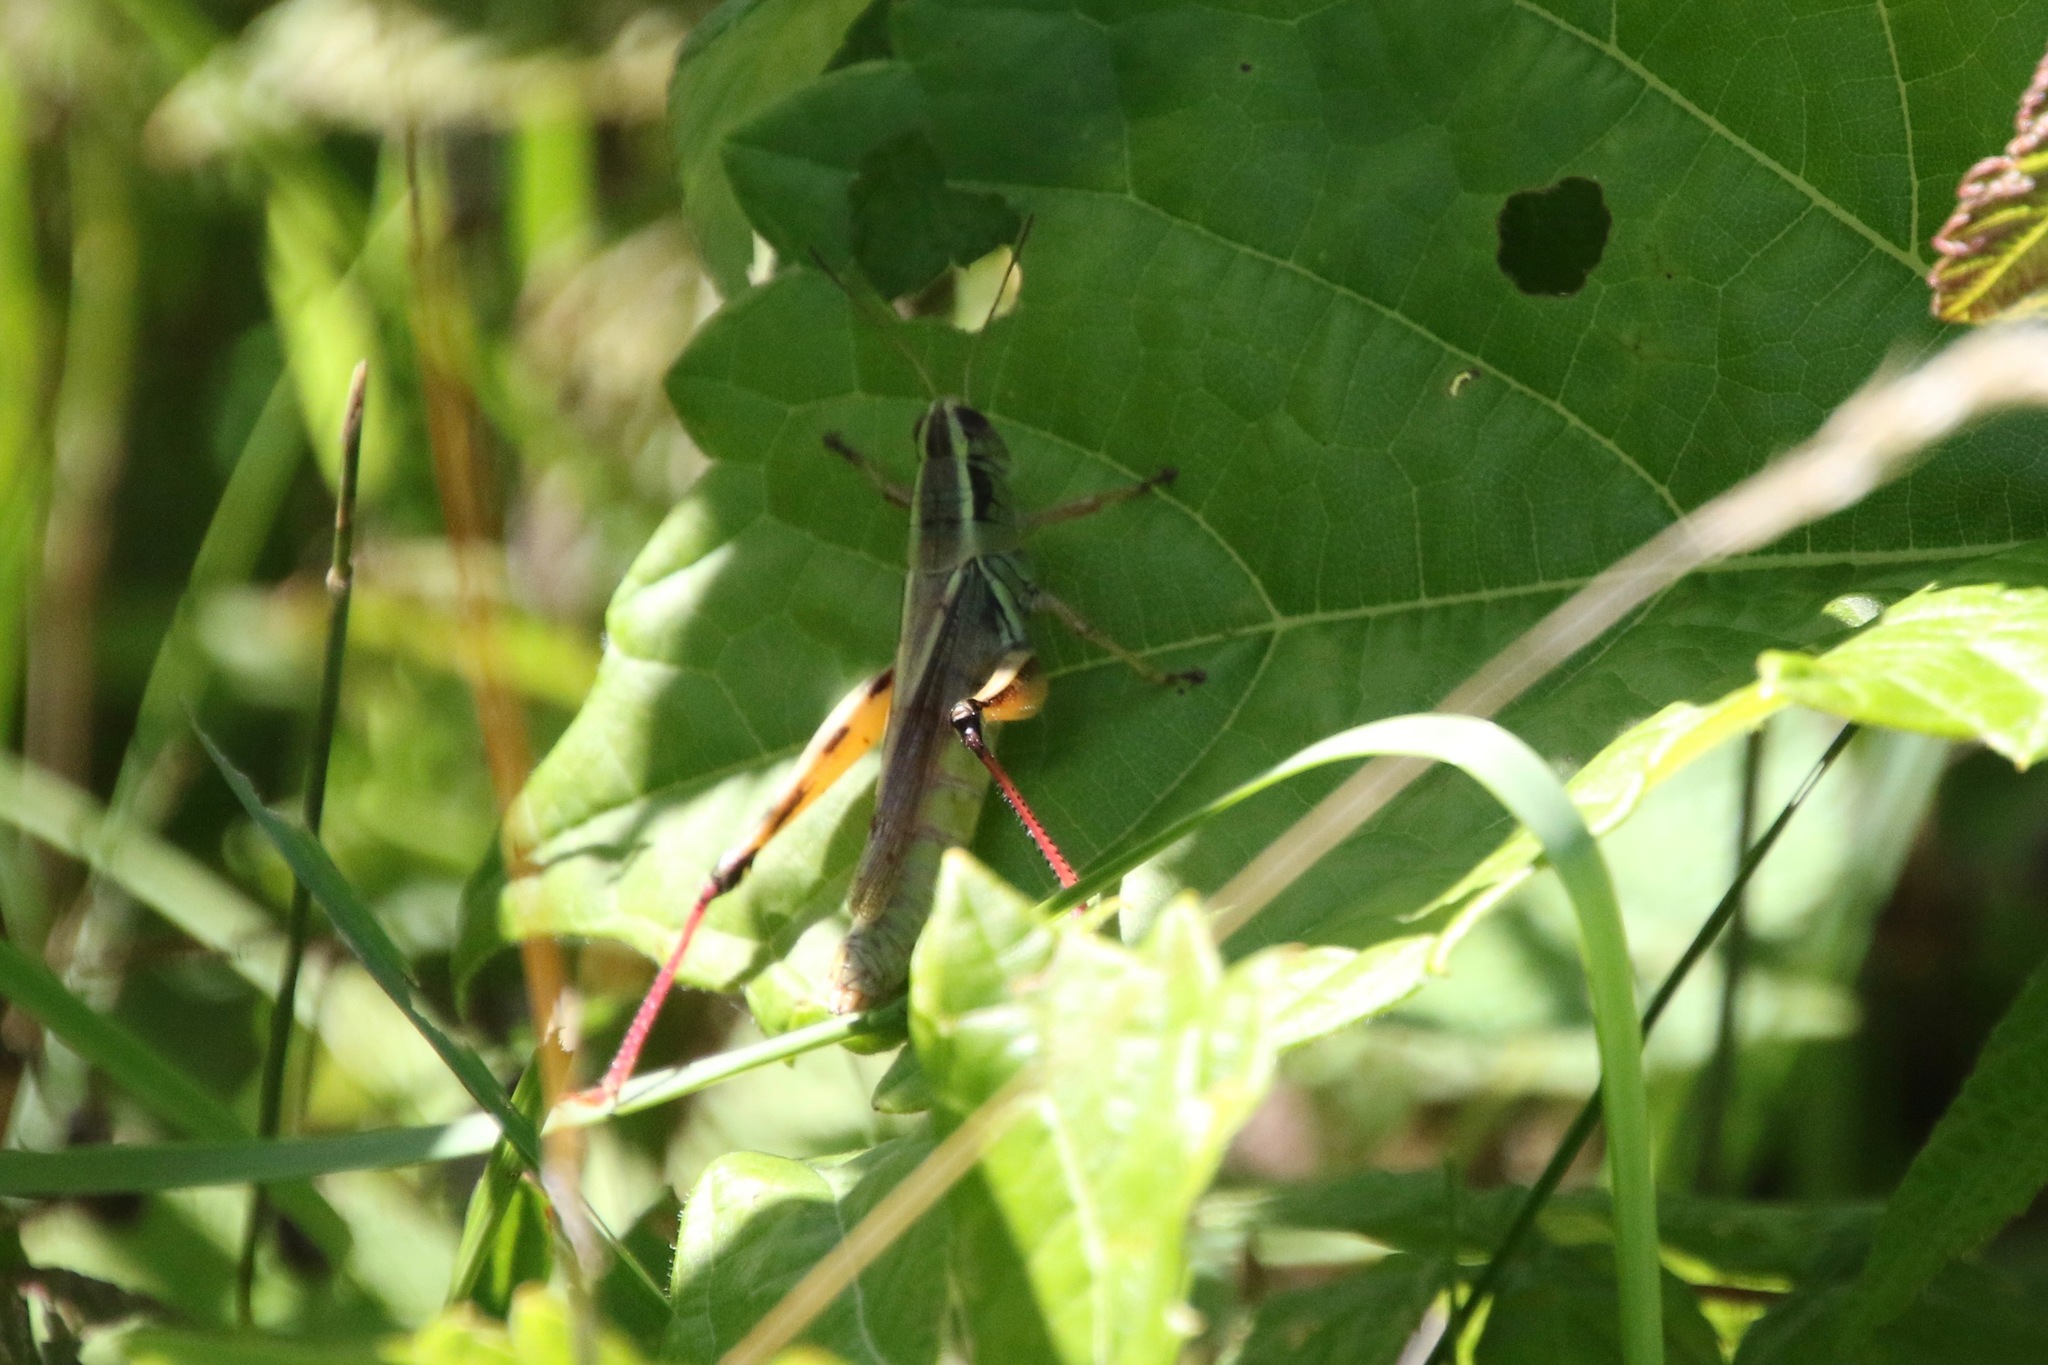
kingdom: Animalia
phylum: Arthropoda
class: Insecta
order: Orthoptera
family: Acrididae
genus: Melanoplus
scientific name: Melanoplus bivittatus
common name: Two-striped grasshopper
